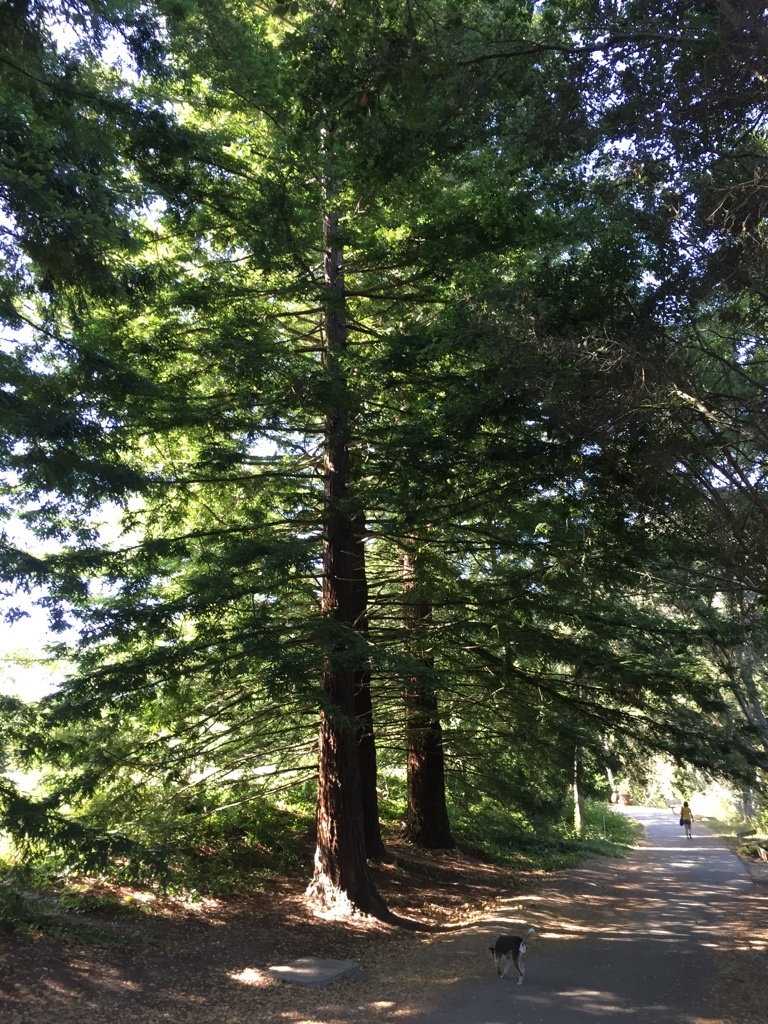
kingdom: Plantae
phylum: Tracheophyta
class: Pinopsida
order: Pinales
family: Cupressaceae
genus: Sequoia
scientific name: Sequoia sempervirens
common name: Coast redwood
